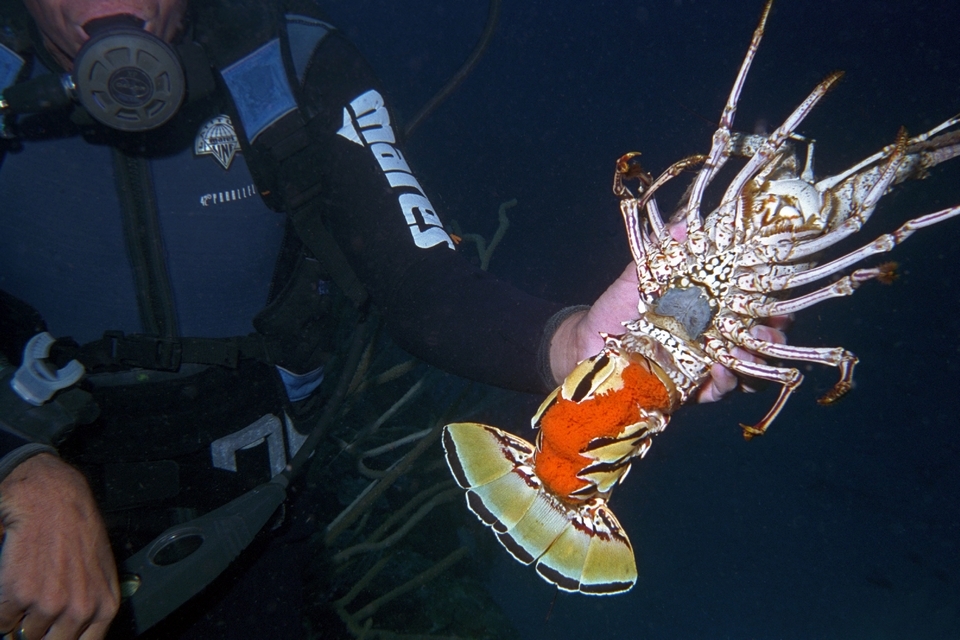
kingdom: Animalia
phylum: Arthropoda
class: Malacostraca
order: Decapoda
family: Palinuridae
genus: Panulirus
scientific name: Panulirus argus
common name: Caribbean spiny lobster
